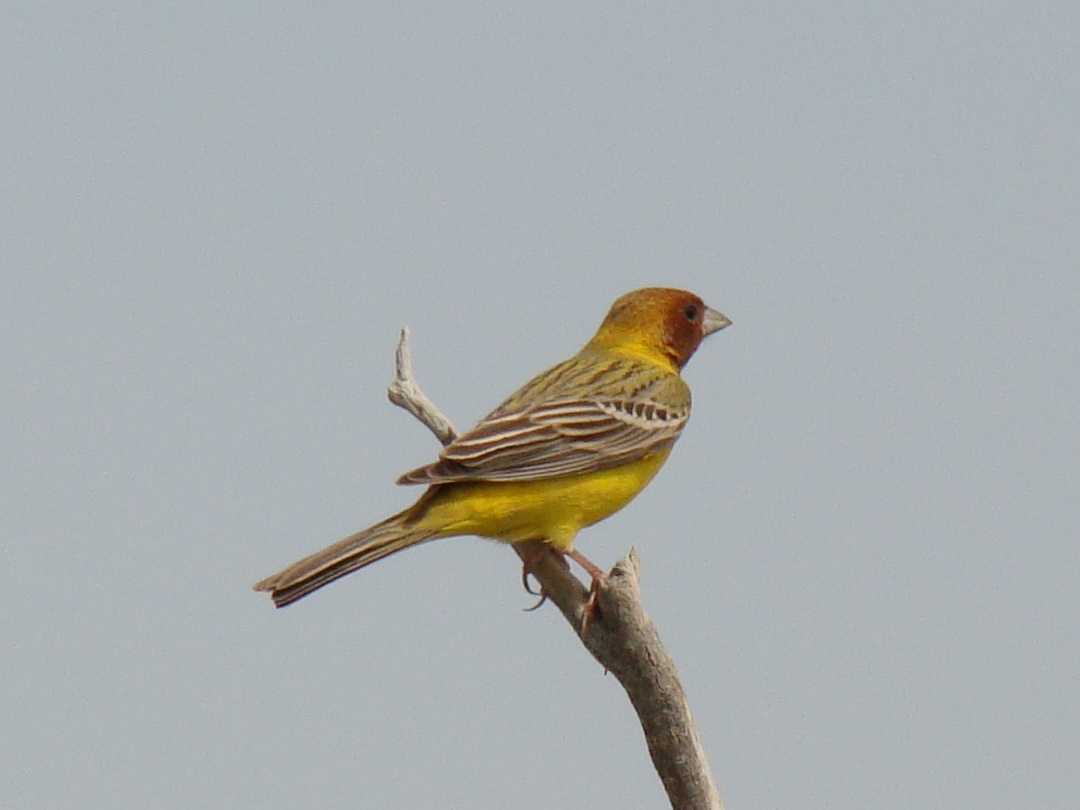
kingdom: Animalia
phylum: Chordata
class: Aves
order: Passeriformes
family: Emberizidae
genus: Emberiza
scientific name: Emberiza bruniceps
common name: Red-headed bunting
